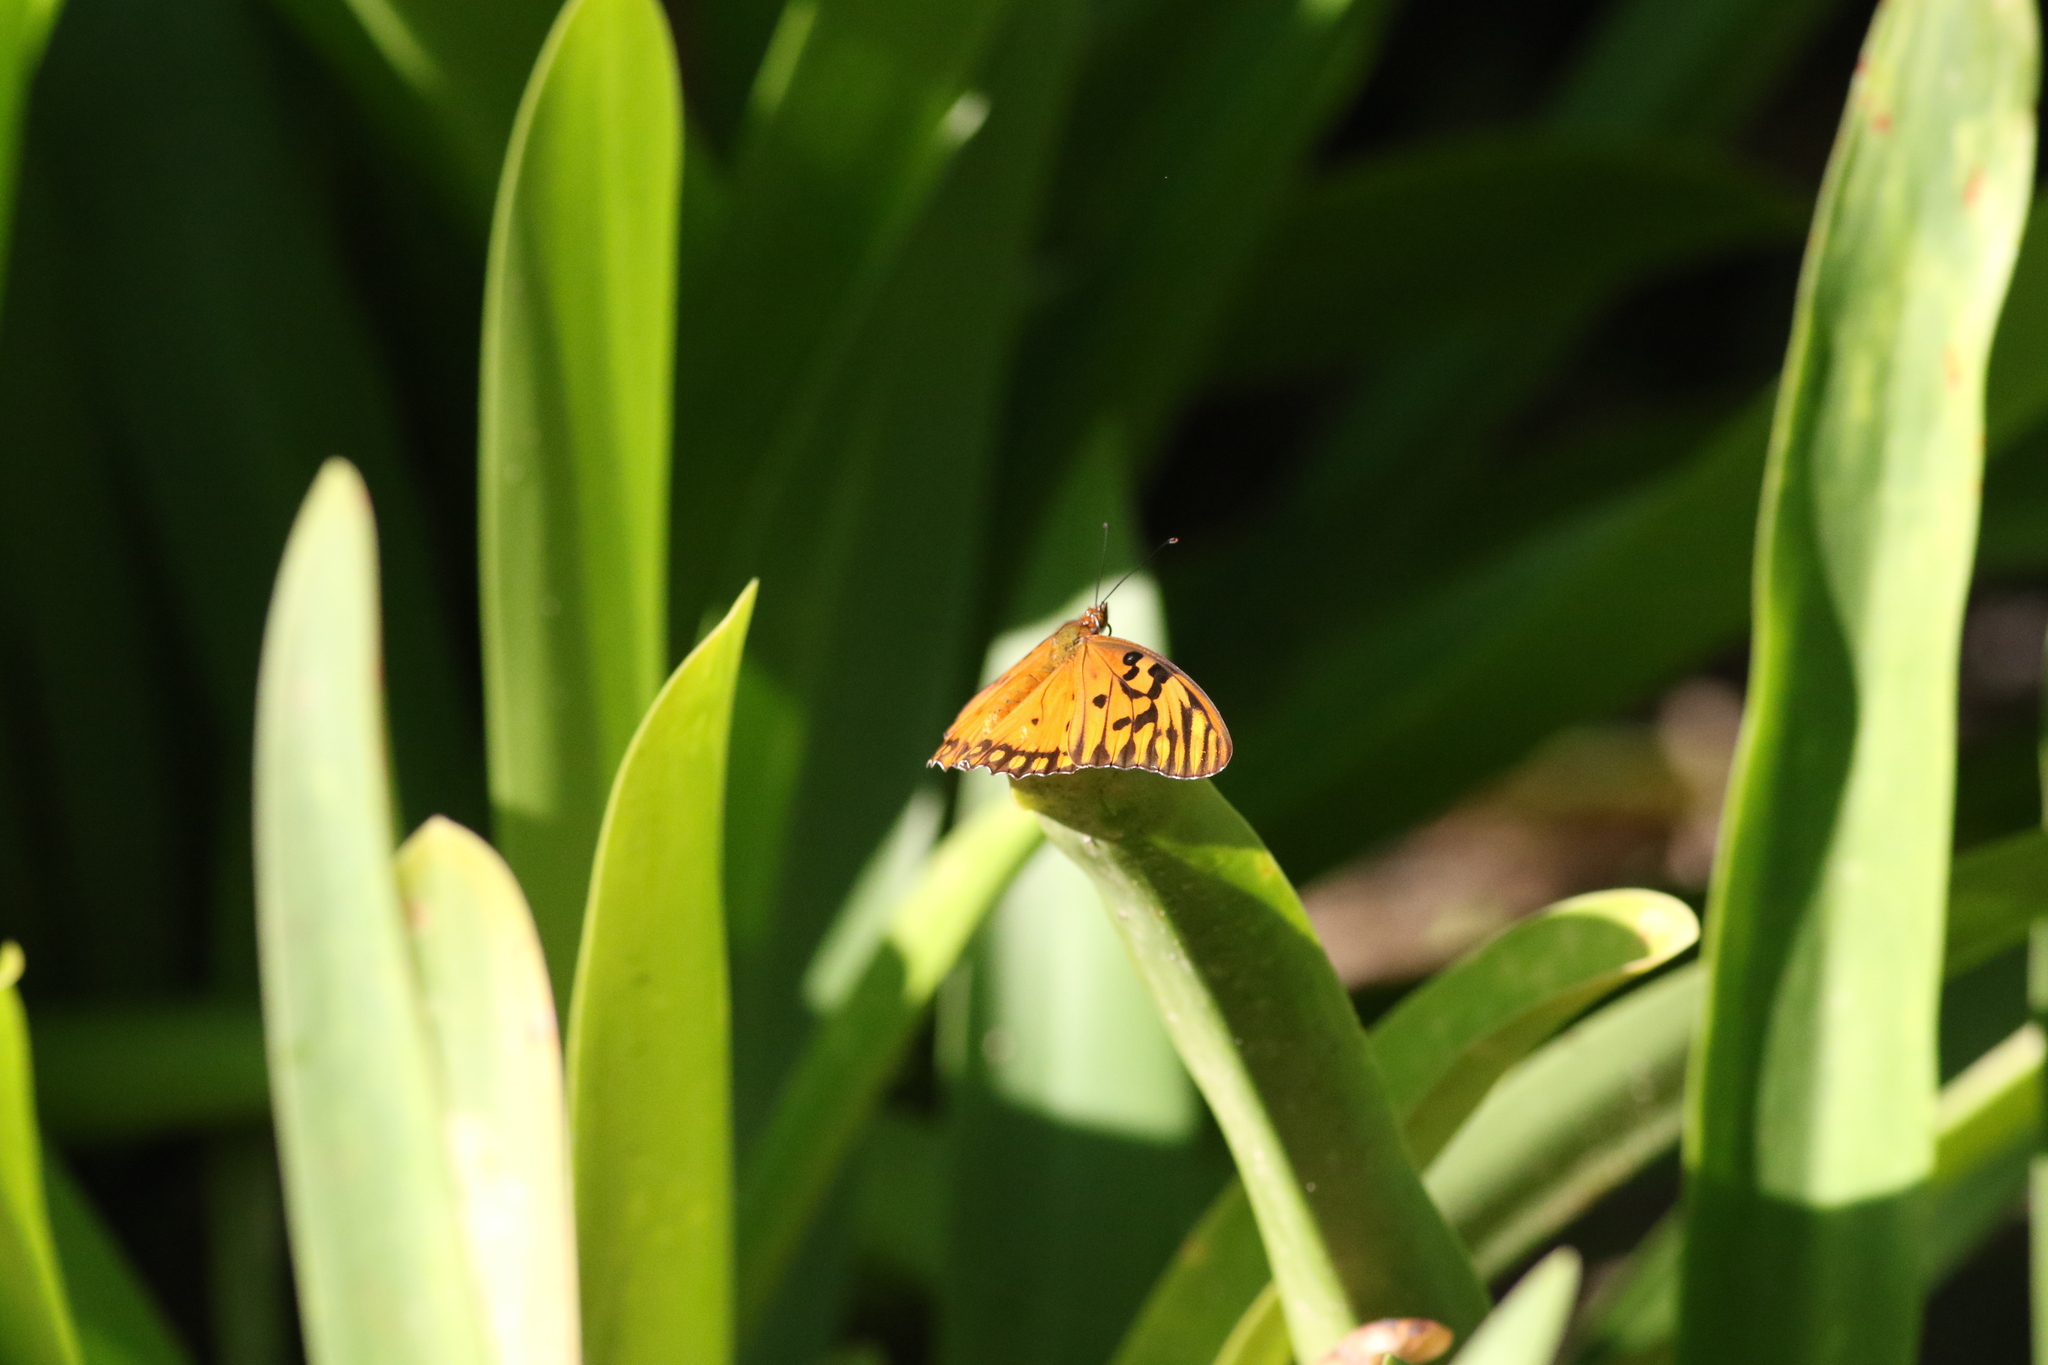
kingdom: Animalia
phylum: Arthropoda
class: Insecta
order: Lepidoptera
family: Nymphalidae
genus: Dione
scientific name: Dione vanillae
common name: Gulf fritillary
